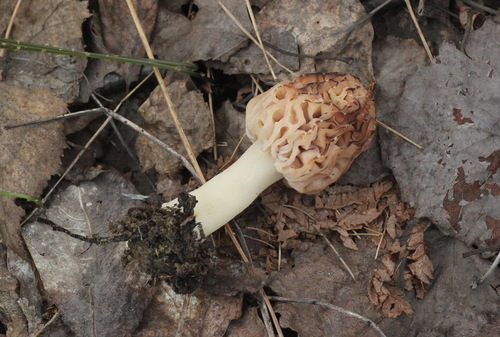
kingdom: Fungi
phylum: Ascomycota
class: Pezizomycetes
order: Pezizales
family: Morchellaceae
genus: Morchella
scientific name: Morchella
